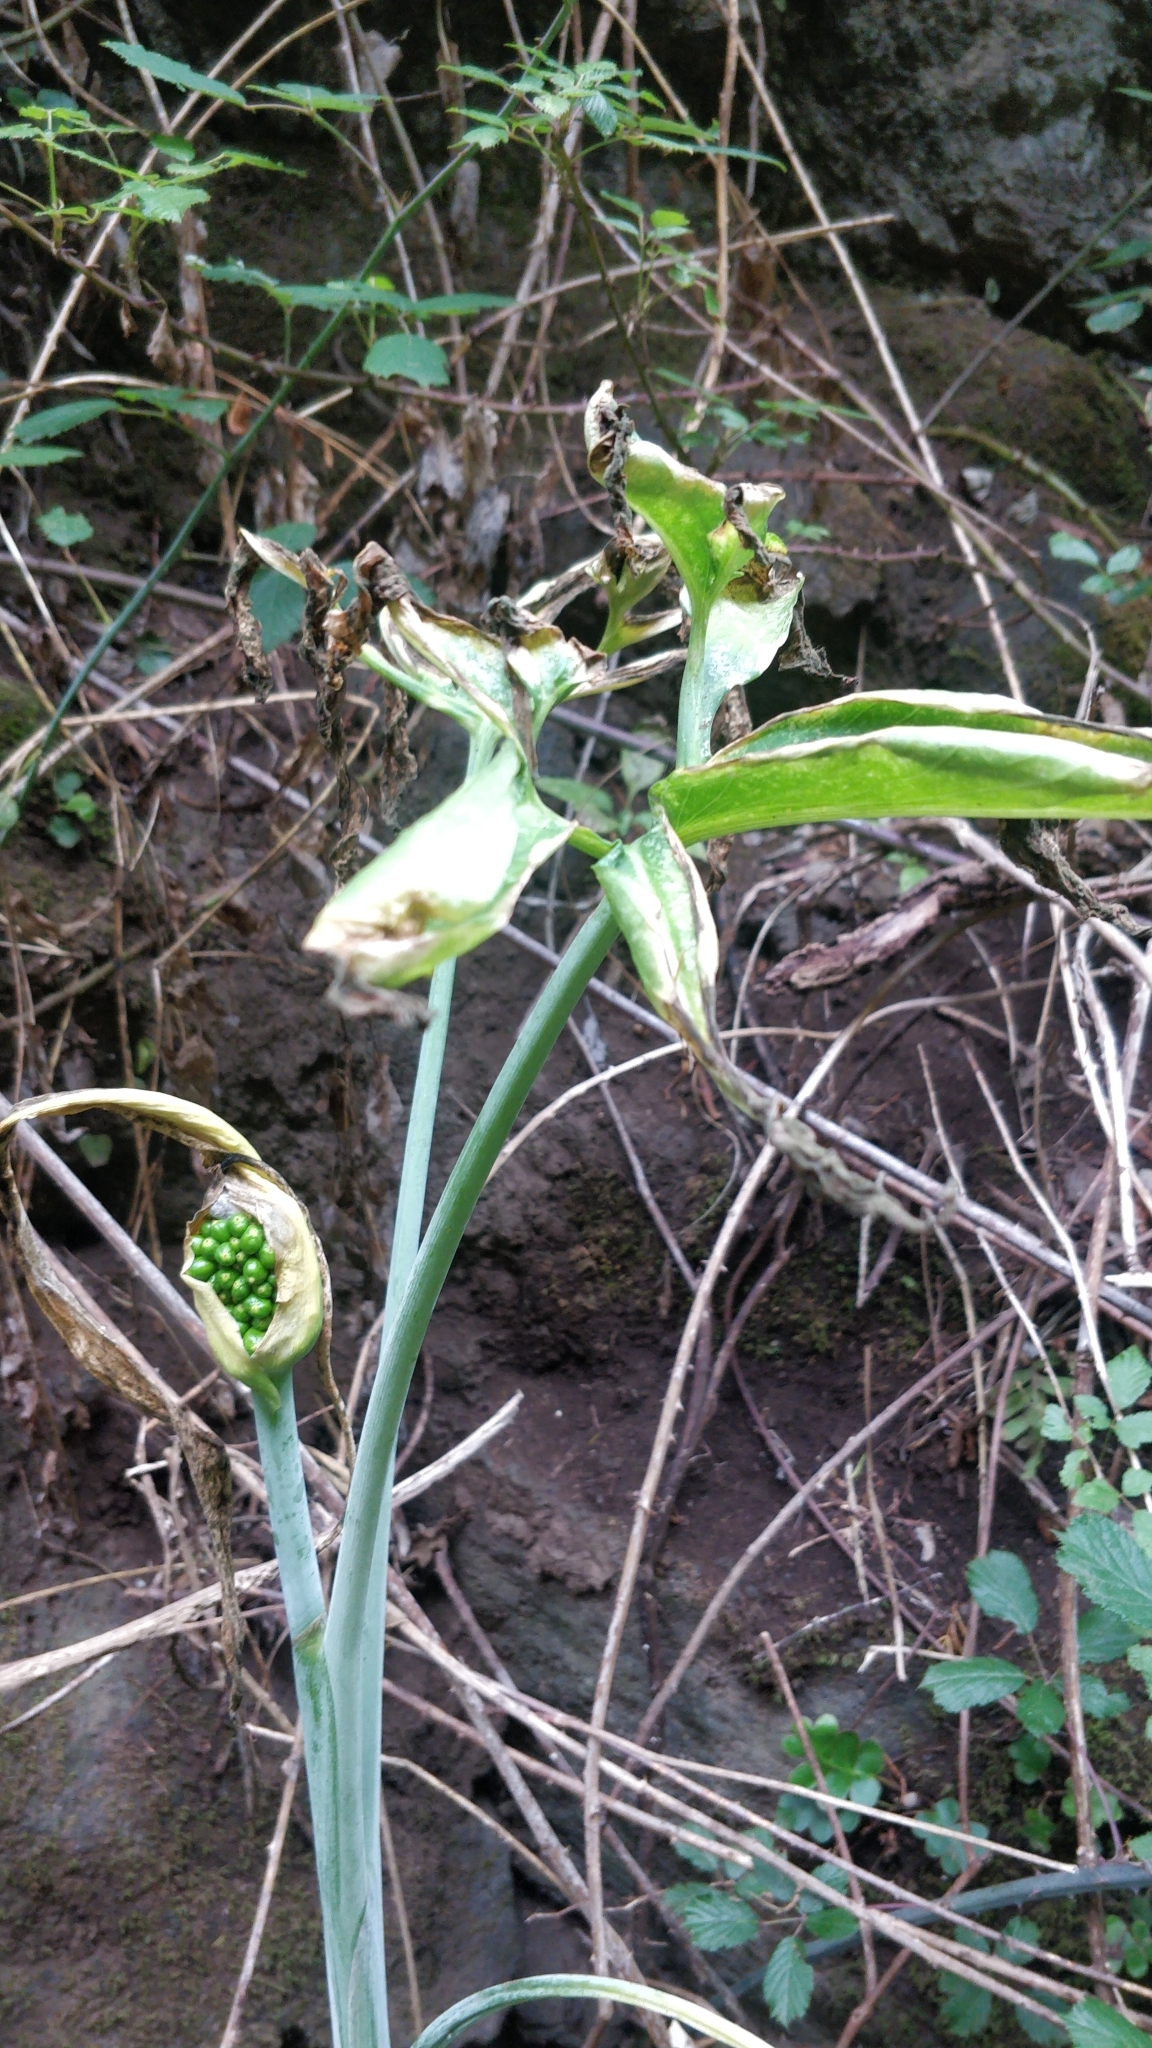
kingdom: Plantae
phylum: Tracheophyta
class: Liliopsida
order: Alismatales
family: Araceae
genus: Dracunculus
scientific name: Dracunculus canariensis
